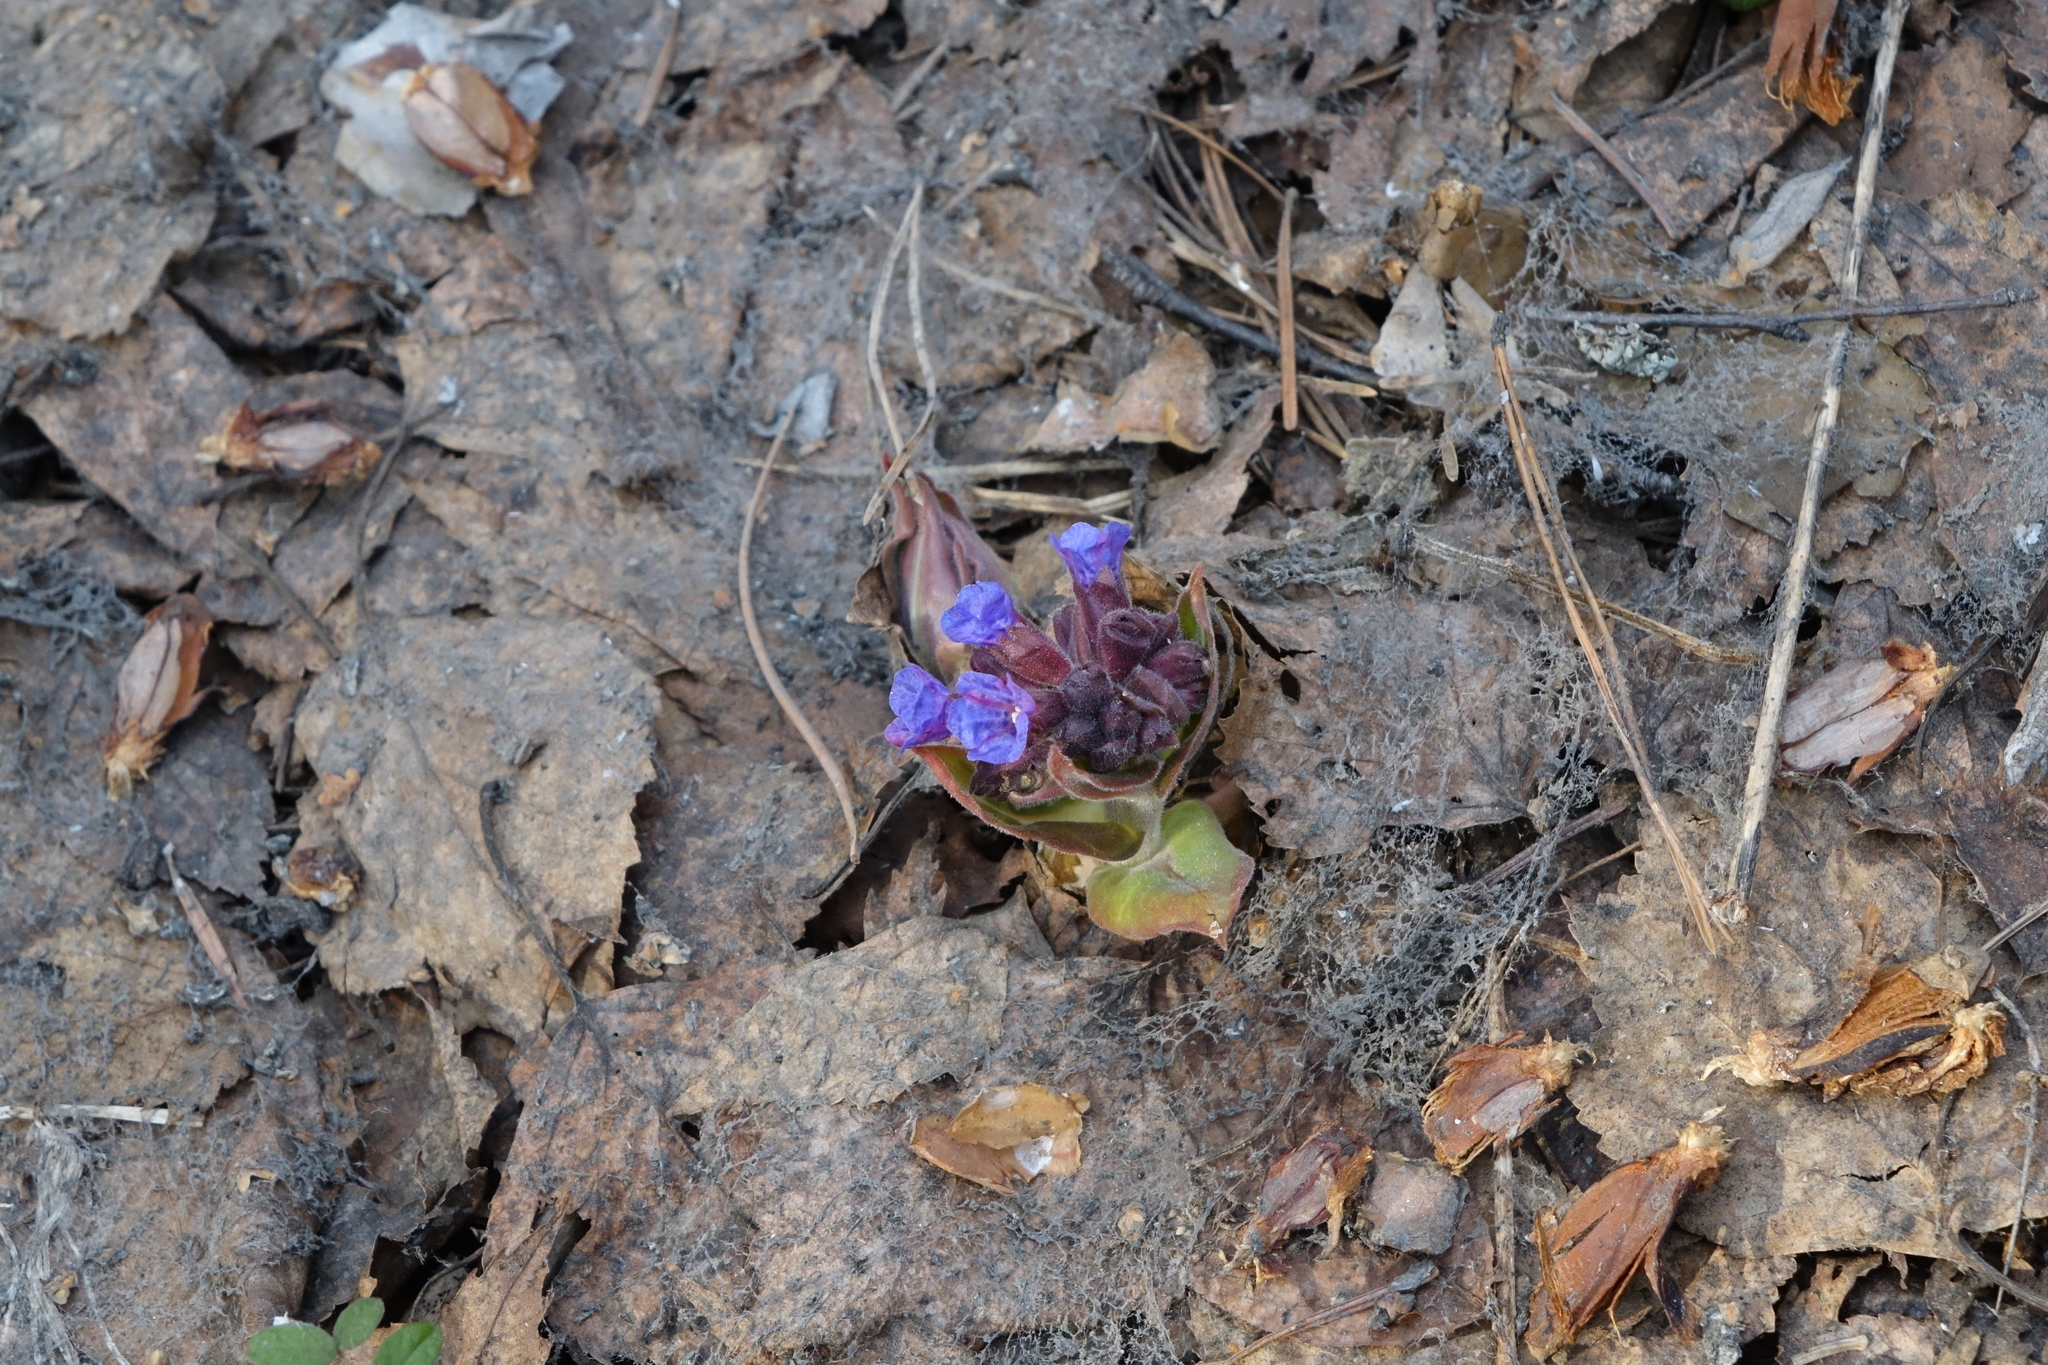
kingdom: Plantae
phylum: Tracheophyta
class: Magnoliopsida
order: Boraginales
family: Boraginaceae
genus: Pulmonaria
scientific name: Pulmonaria mollis
